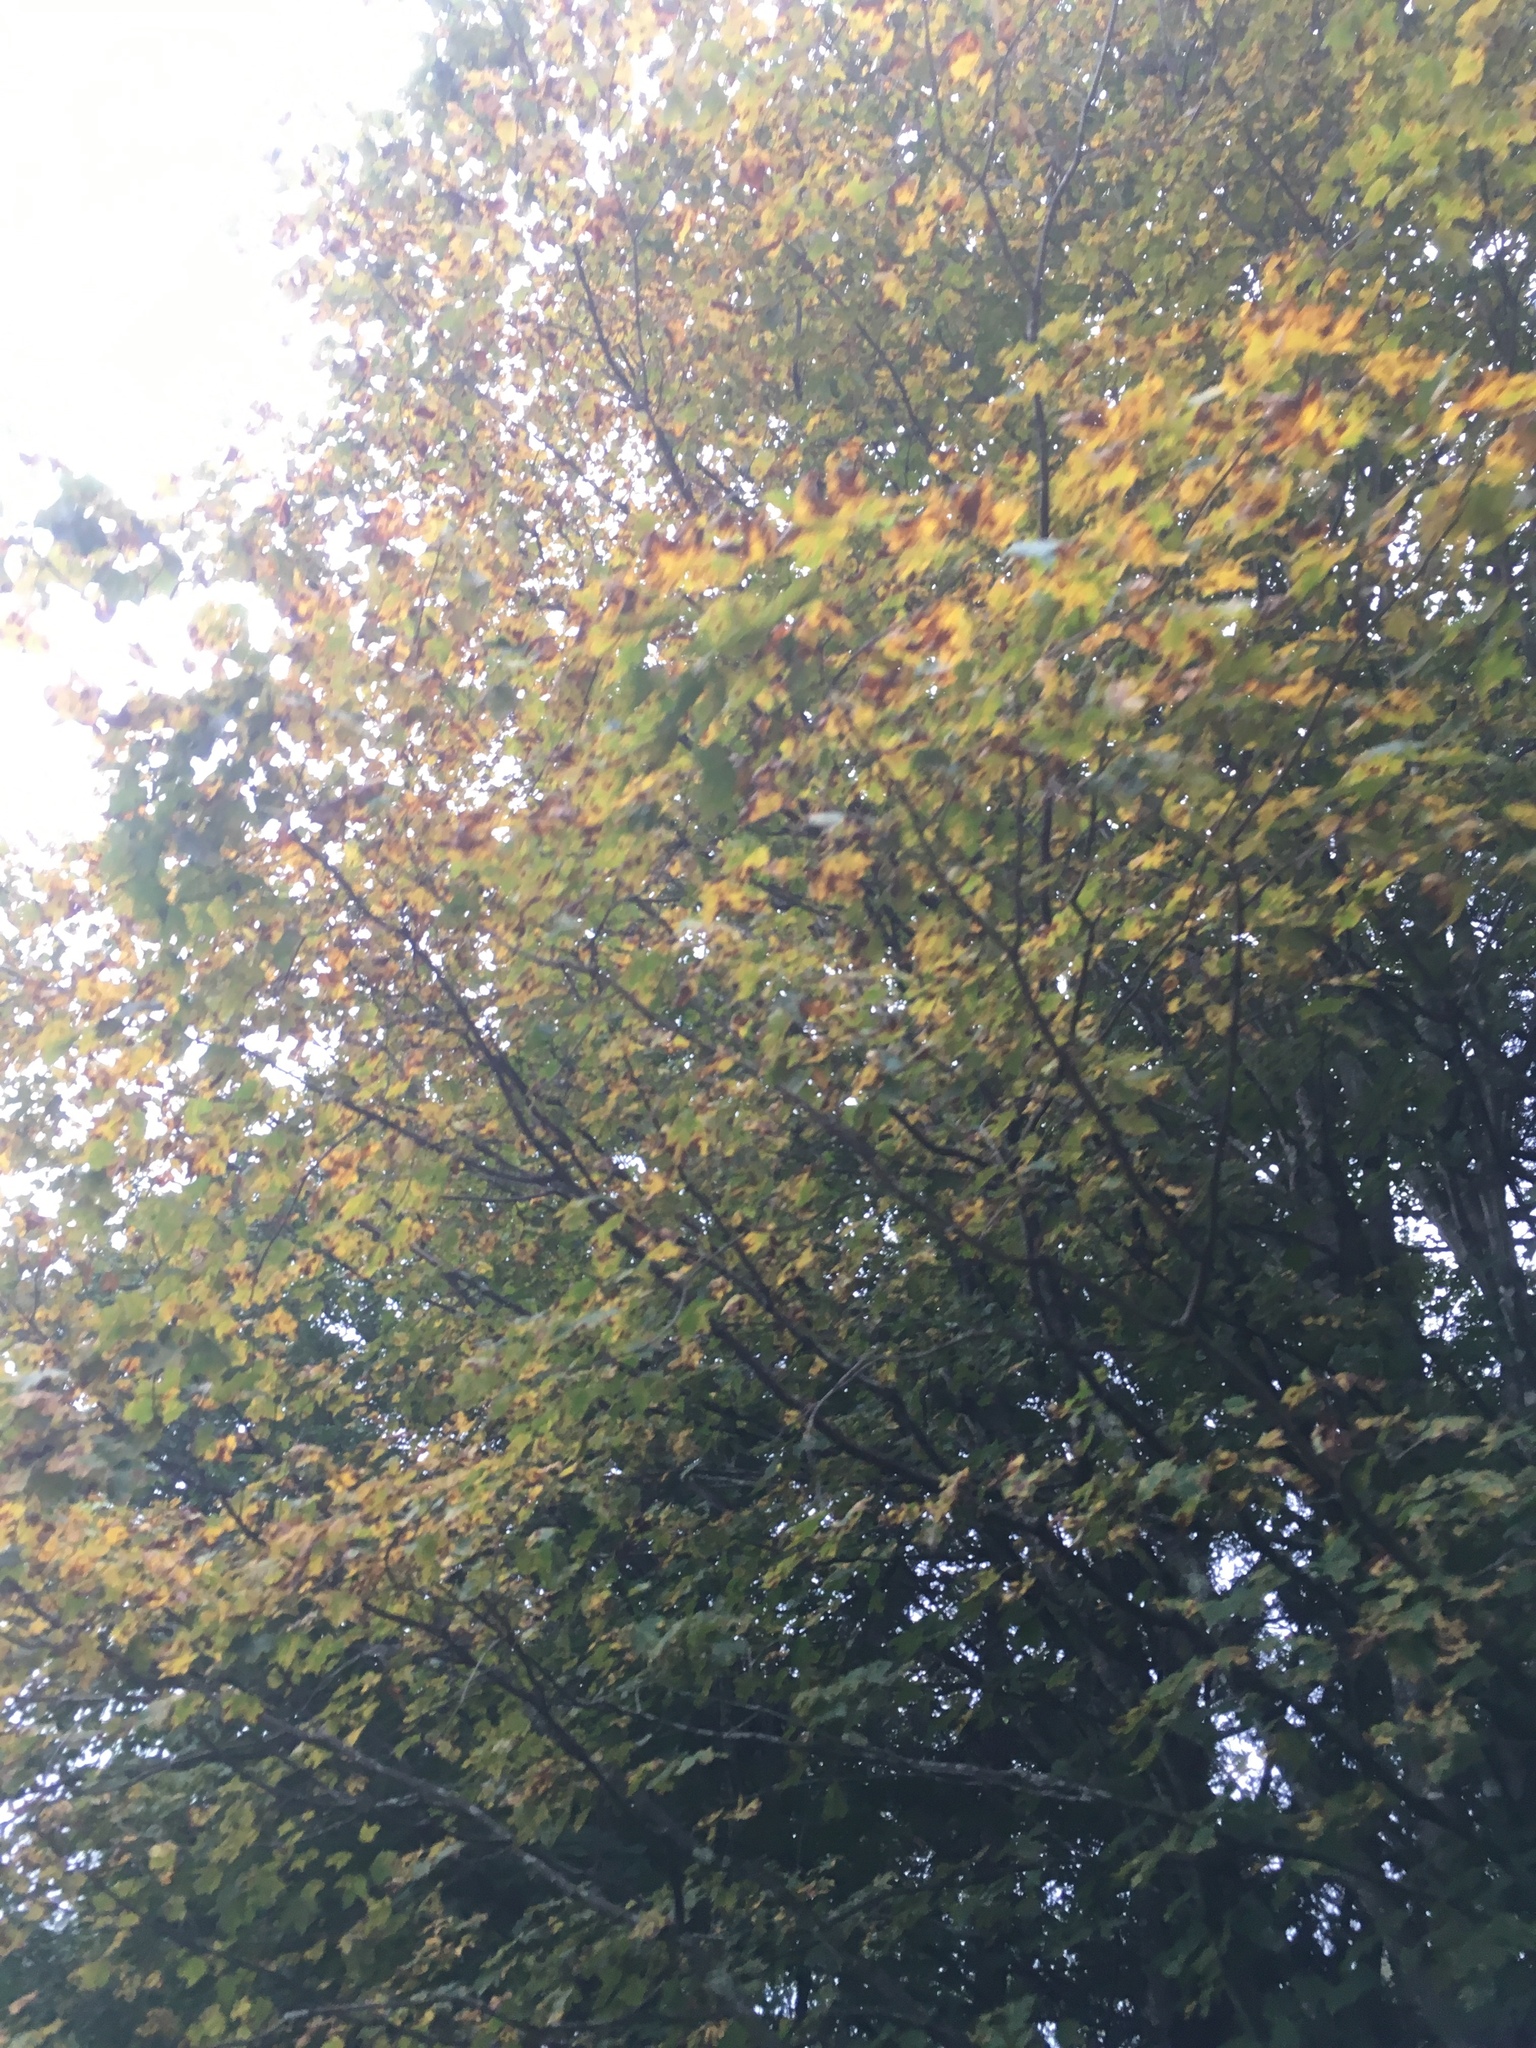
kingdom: Plantae
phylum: Tracheophyta
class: Magnoliopsida
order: Sapindales
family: Sapindaceae
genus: Acer
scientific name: Acer saccharum
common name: Sugar maple
